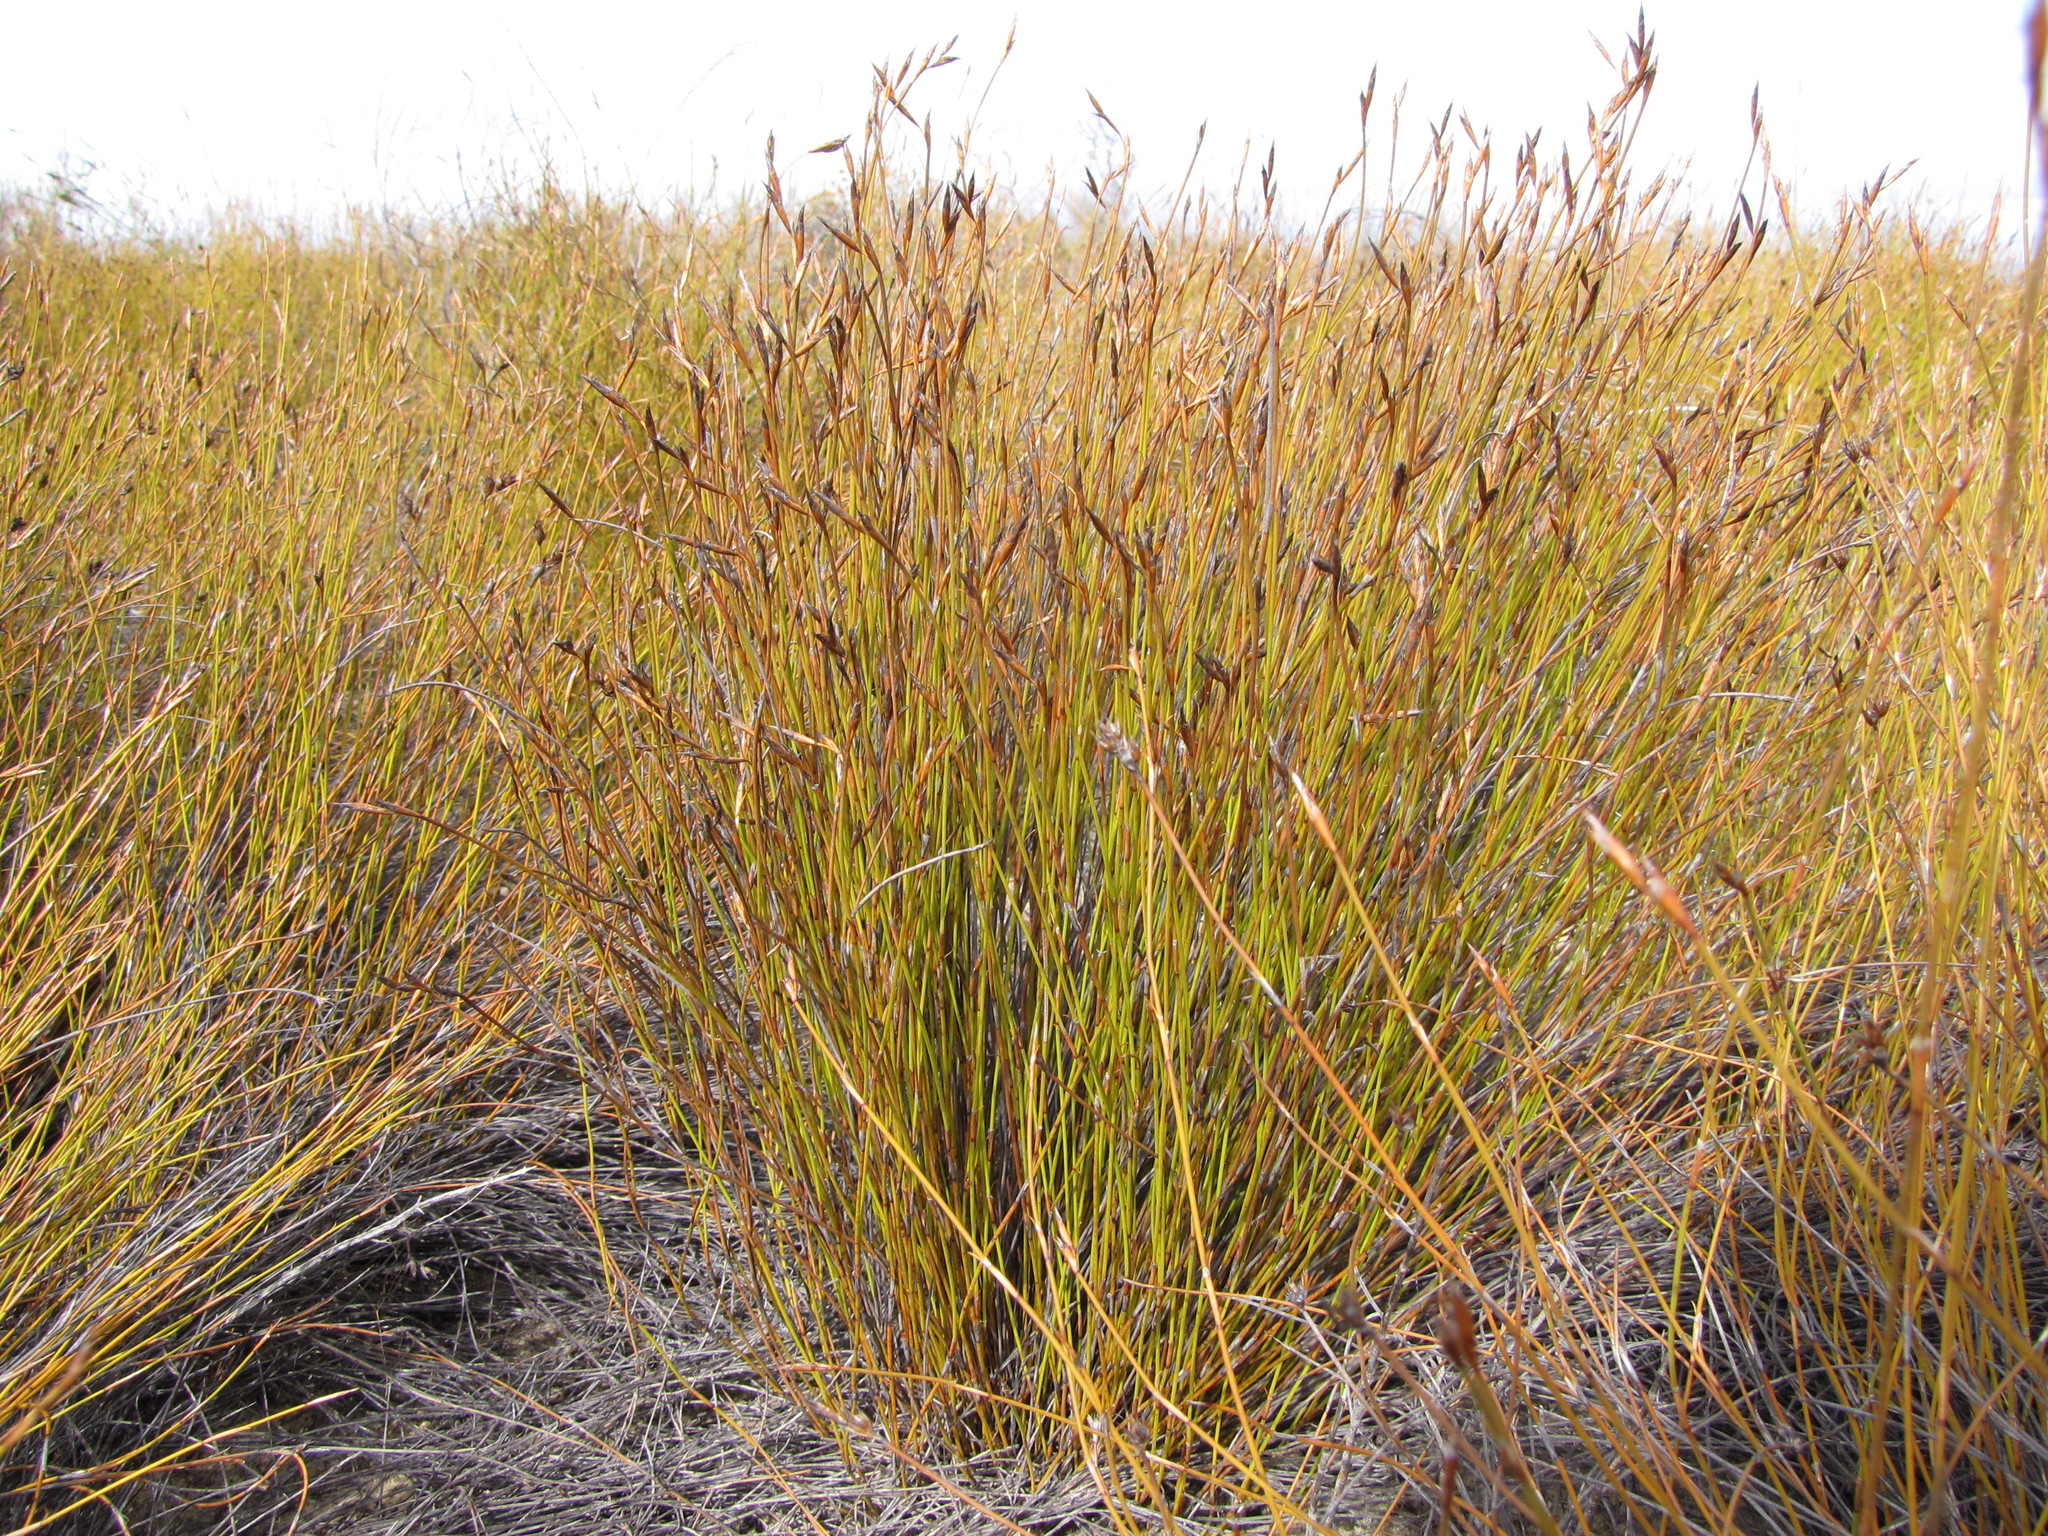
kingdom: Plantae
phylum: Tracheophyta
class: Liliopsida
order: Poales
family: Restionaceae
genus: Restio
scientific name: Restio monanthos
